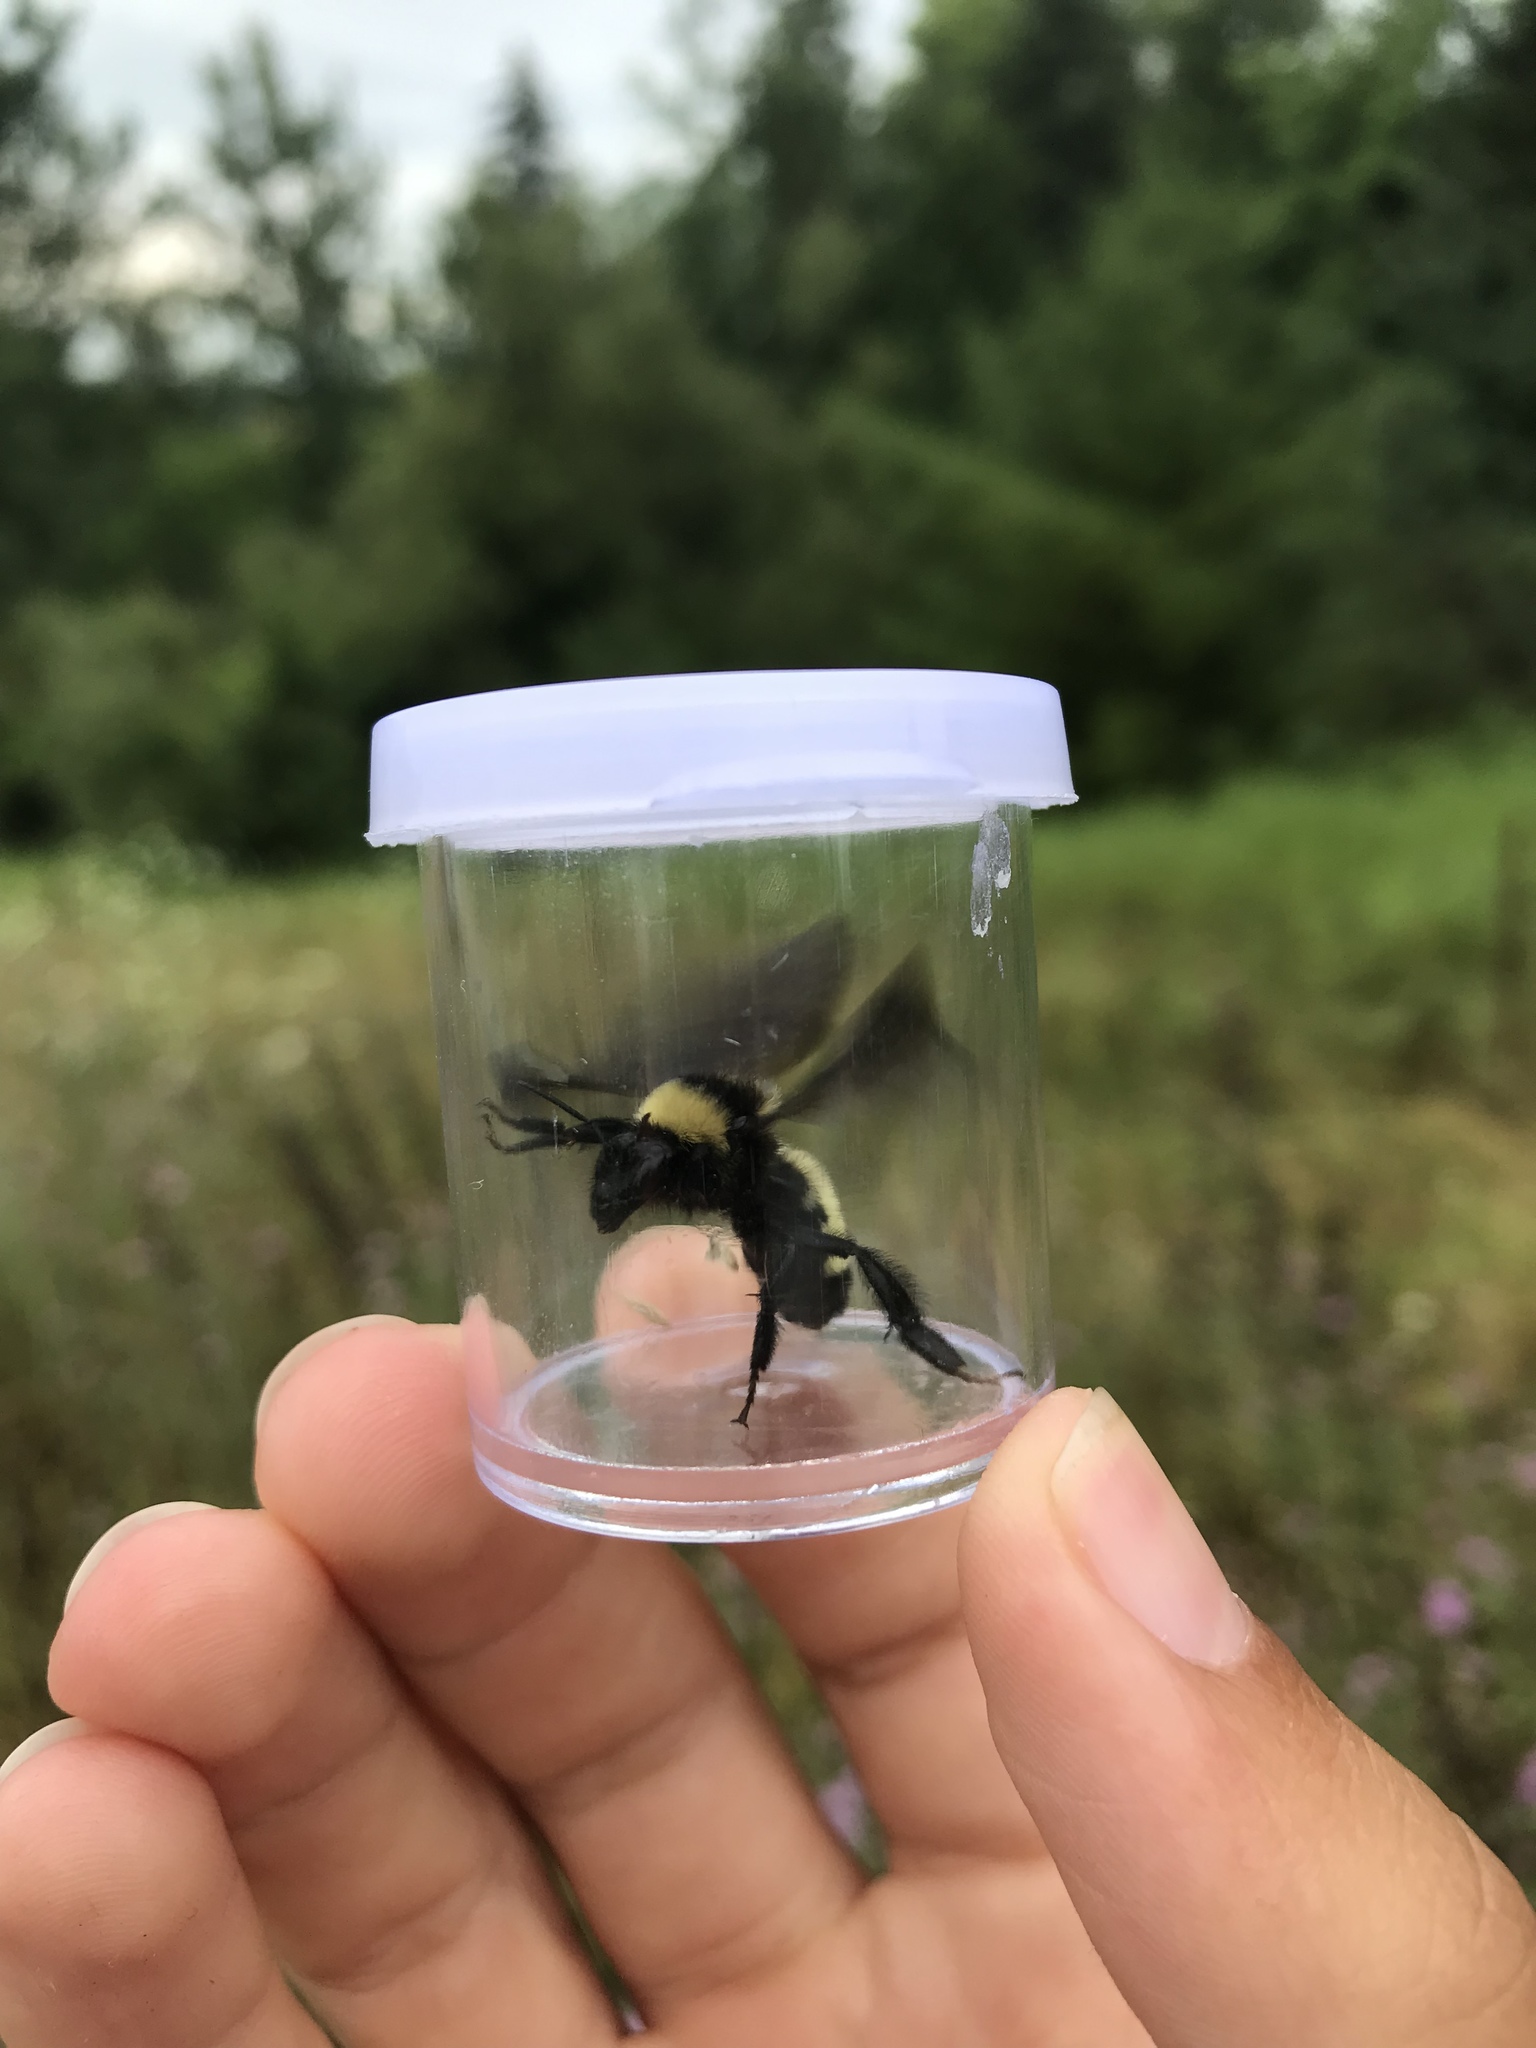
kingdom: Animalia
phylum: Arthropoda
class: Insecta
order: Hymenoptera
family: Apidae
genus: Bombus
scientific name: Bombus pensylvanicus
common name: Bumble bee
